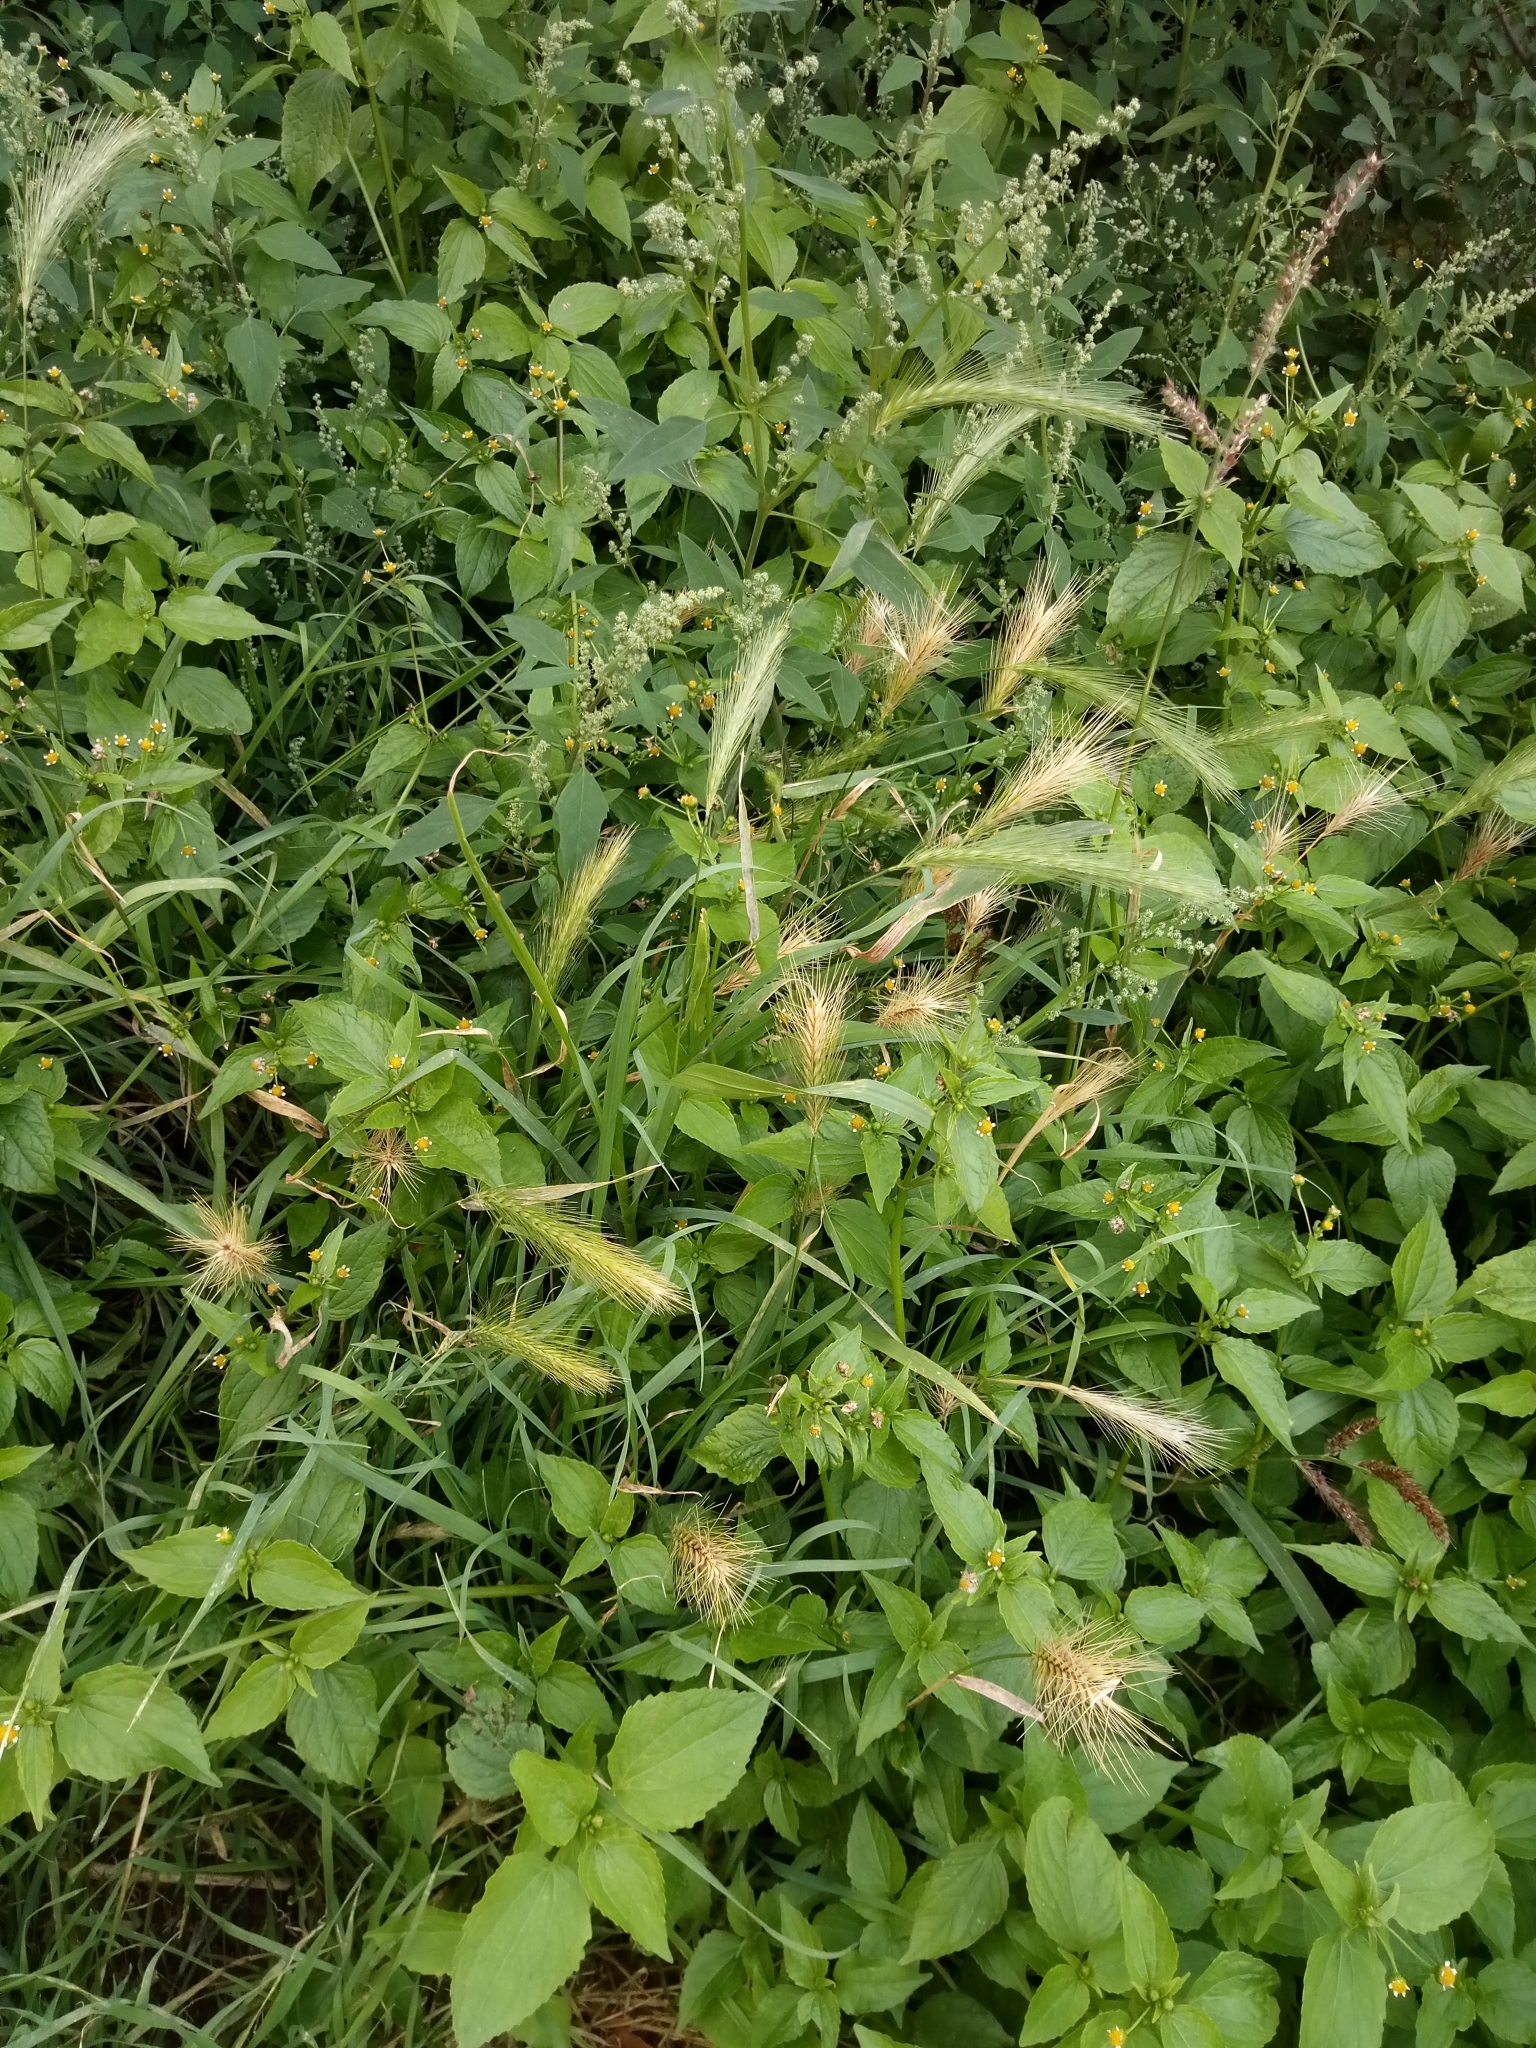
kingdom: Plantae
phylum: Tracheophyta
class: Liliopsida
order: Poales
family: Poaceae
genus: Hordeum
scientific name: Hordeum murinum
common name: Wall barley
